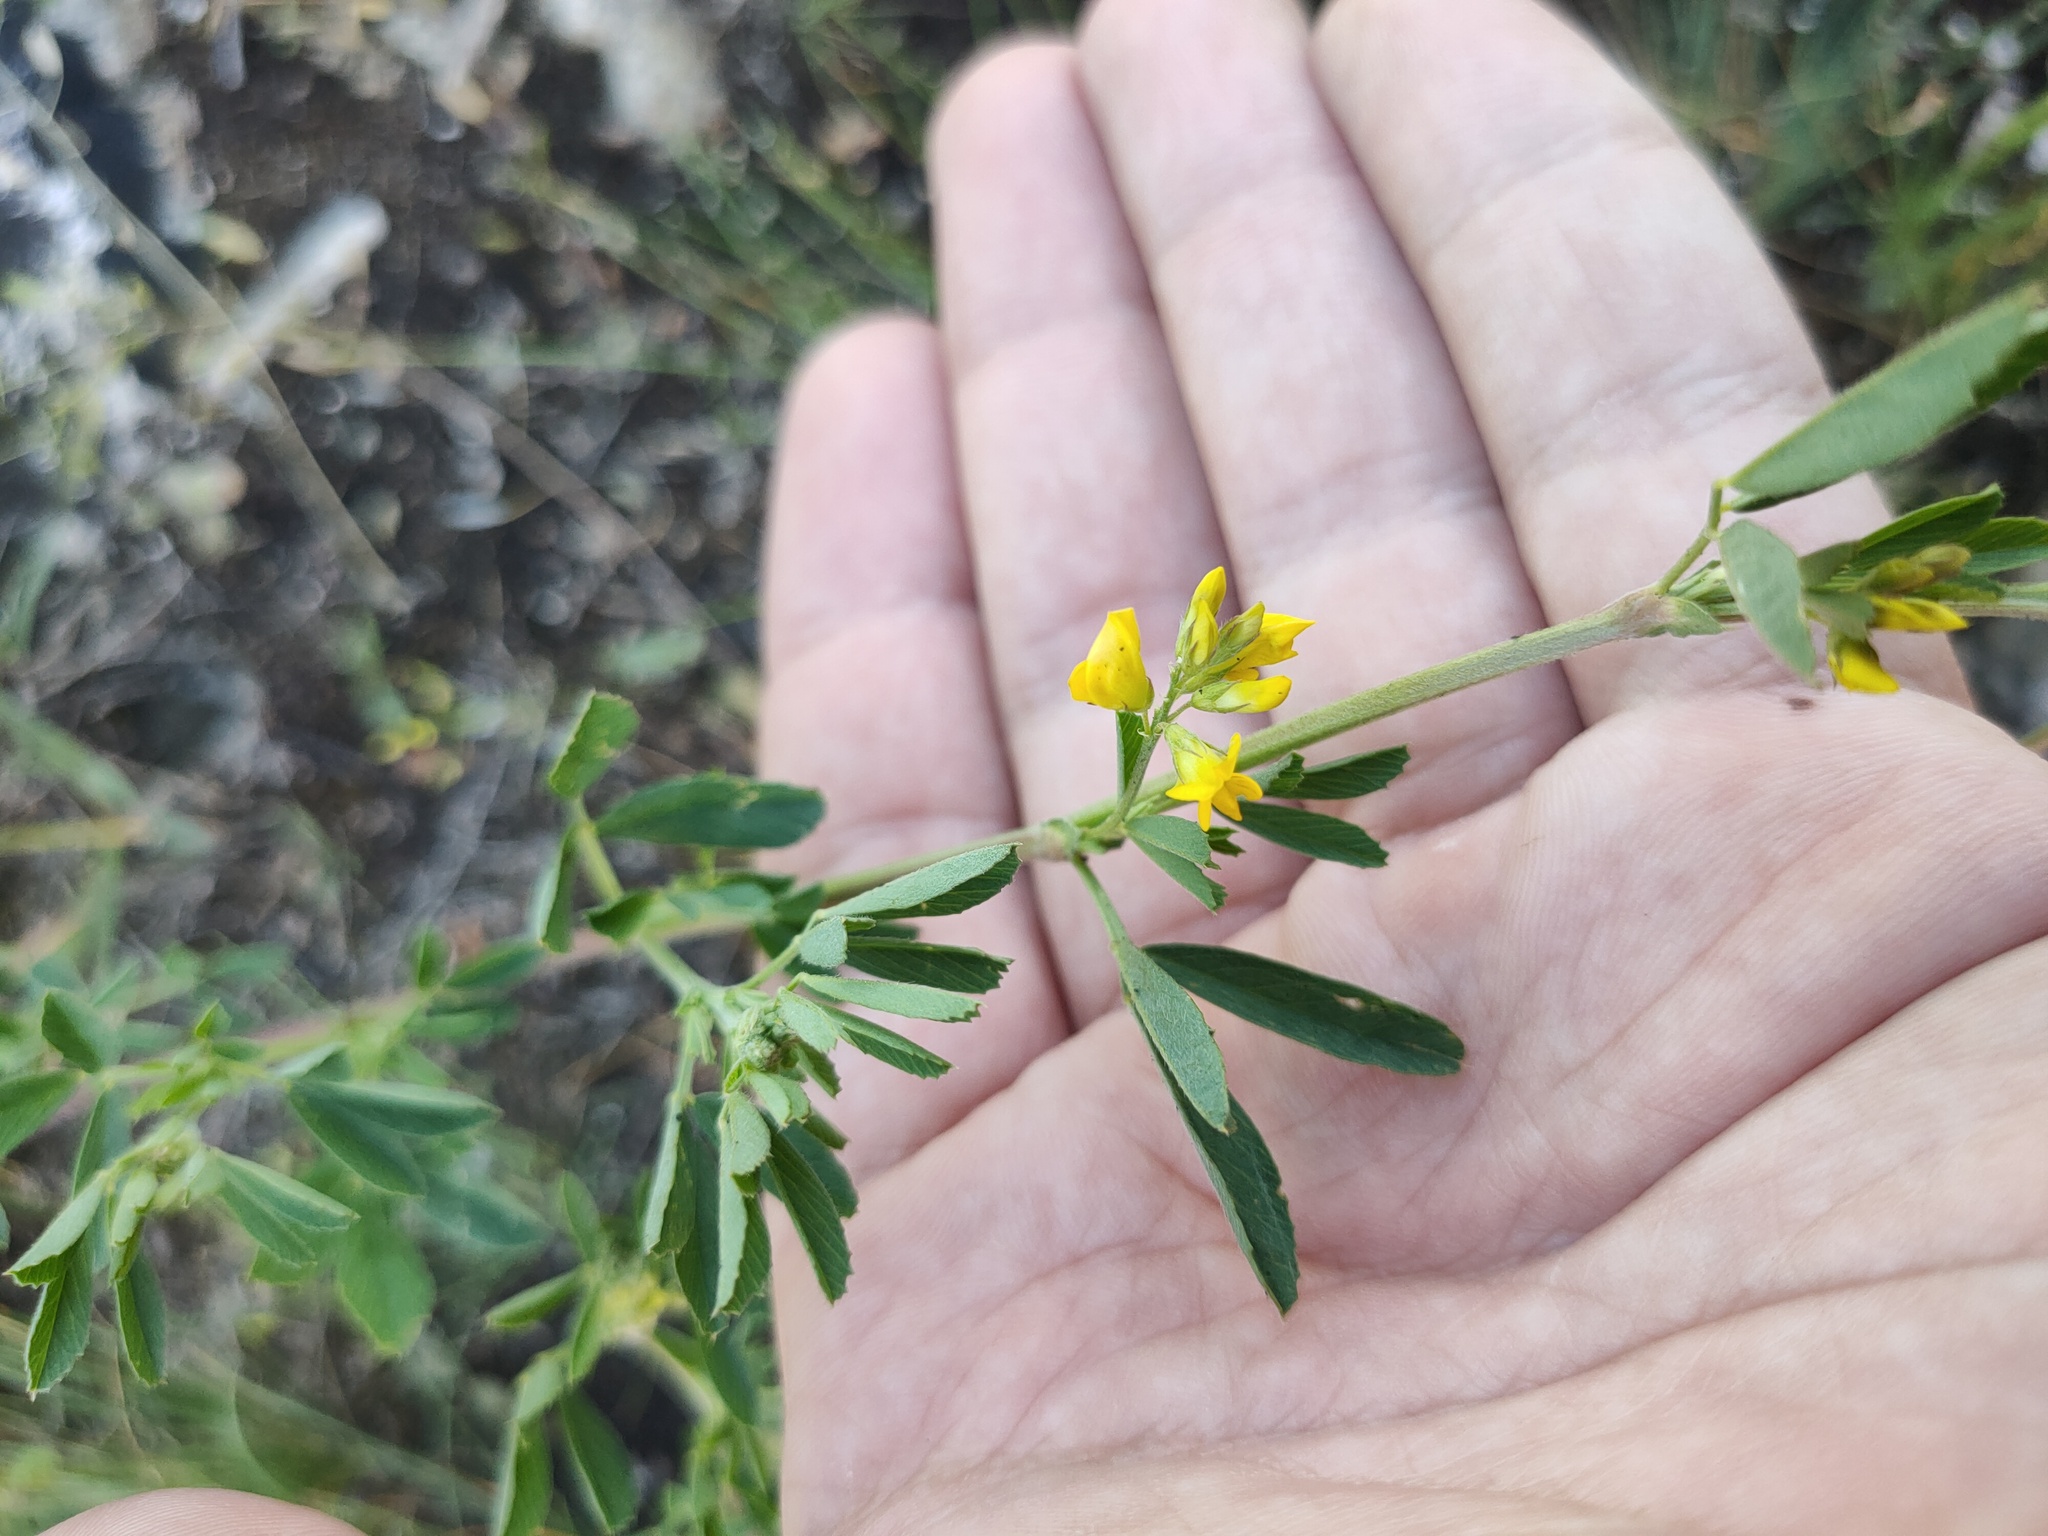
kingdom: Plantae
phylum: Tracheophyta
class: Magnoliopsida
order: Fabales
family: Fabaceae
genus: Medicago
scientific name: Medicago falcata
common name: Sickle medick
